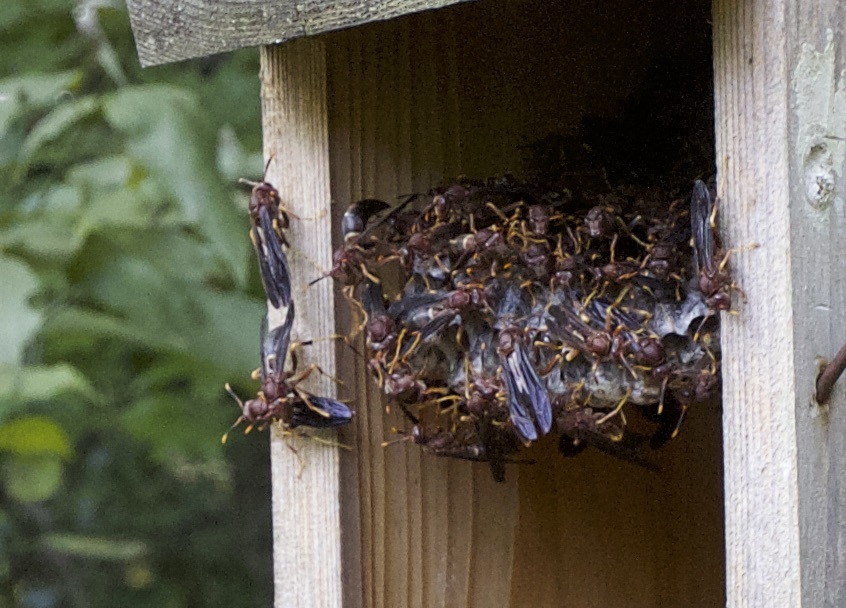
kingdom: Animalia
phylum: Arthropoda
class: Insecta
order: Hymenoptera
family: Eumenidae
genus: Polistes
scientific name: Polistes annularis
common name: Ringed paper wasp
